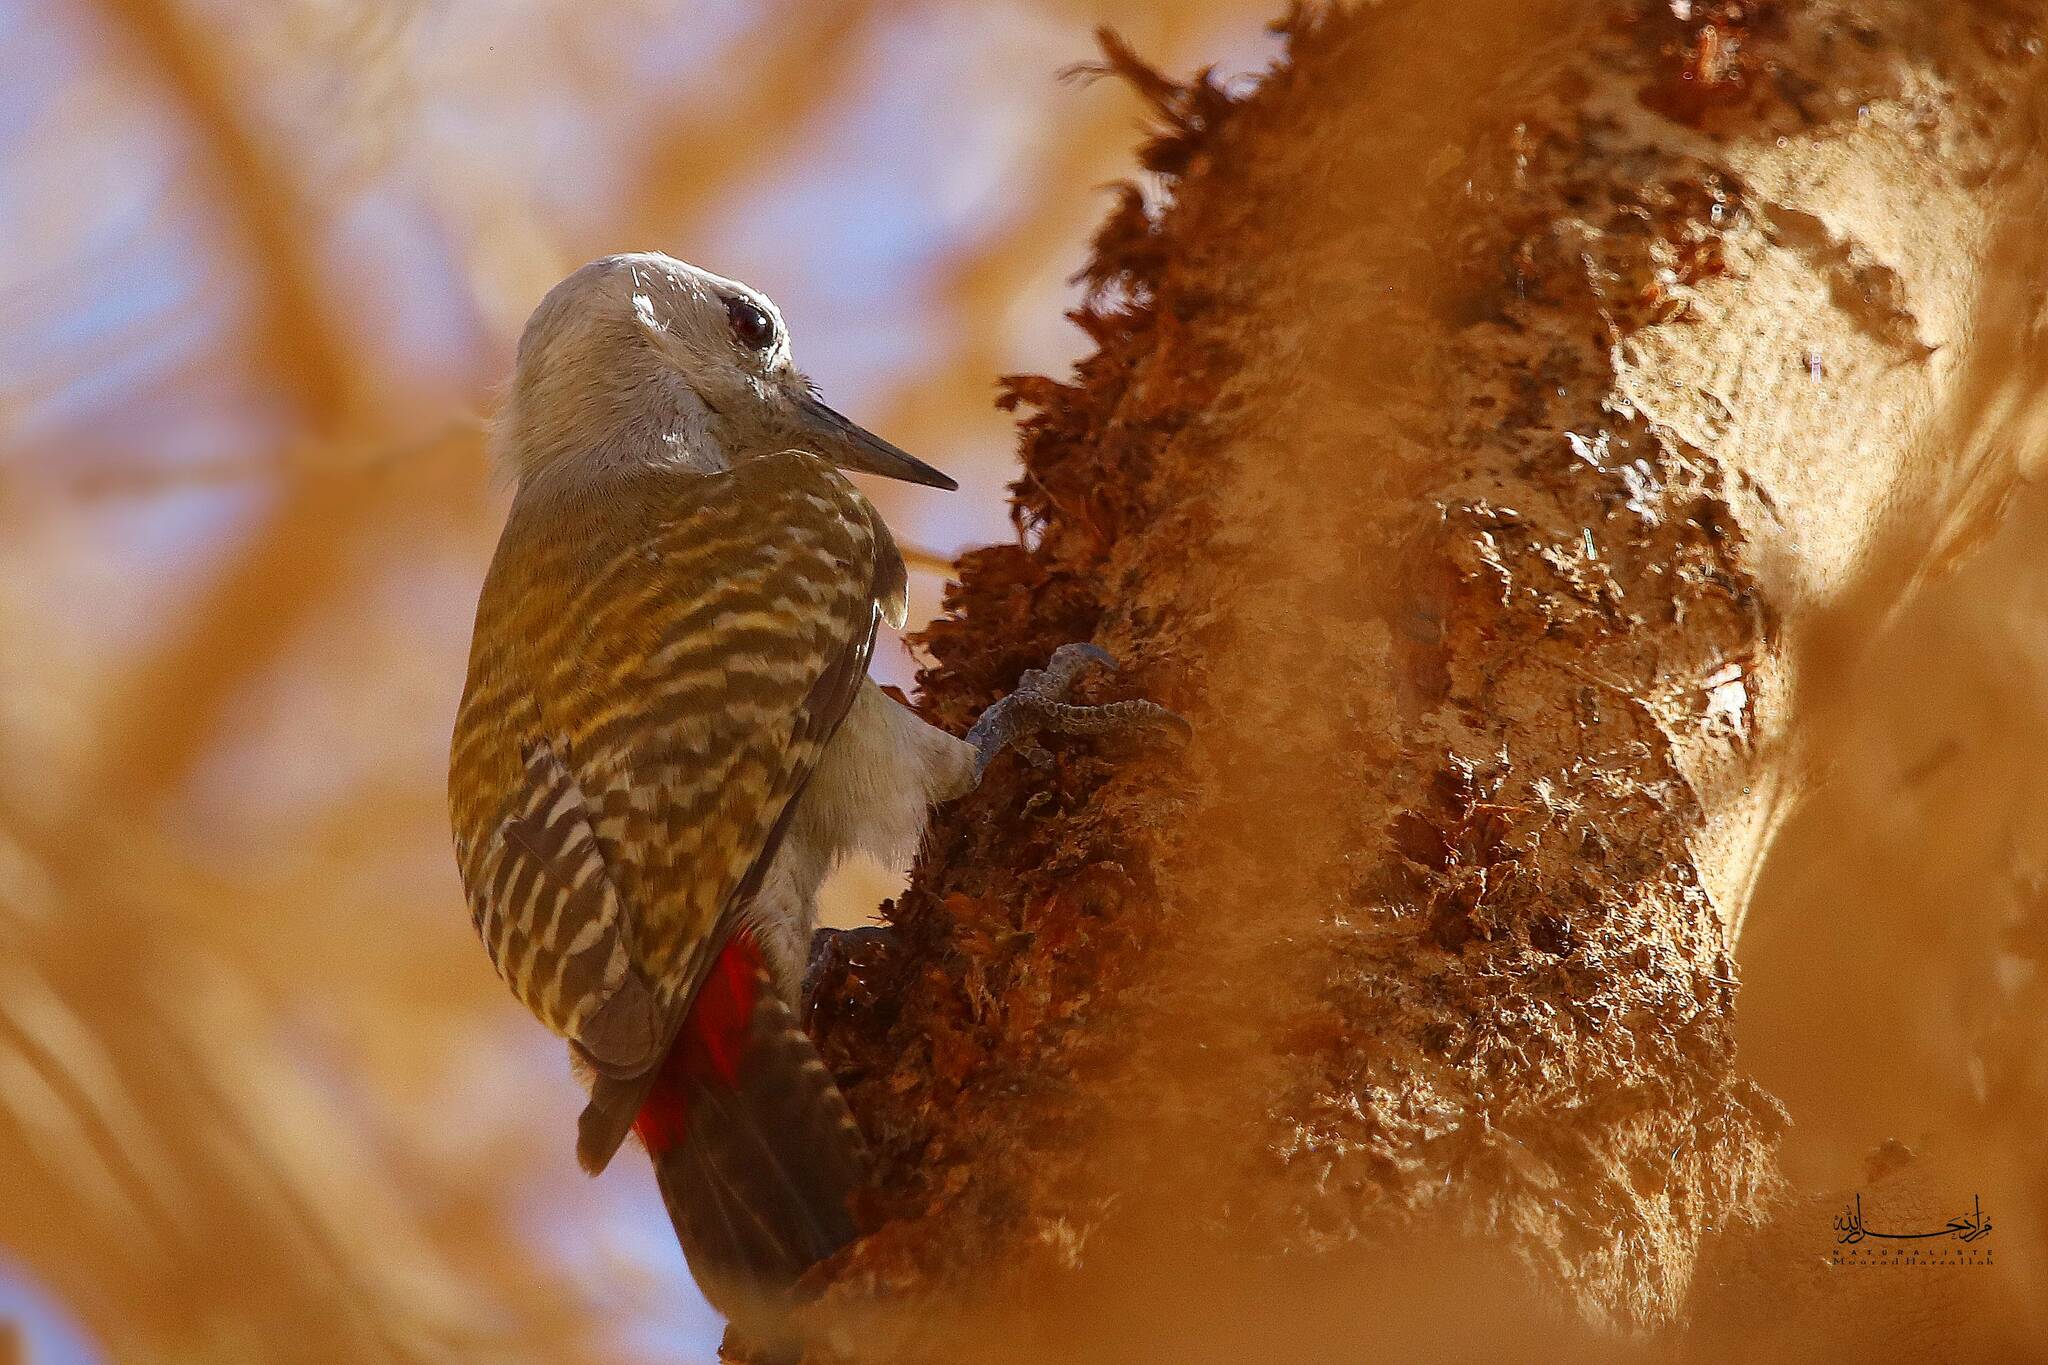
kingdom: Animalia
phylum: Chordata
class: Aves
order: Piciformes
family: Picidae
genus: Dendropicos
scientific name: Dendropicos goertae
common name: African grey woodpecker
